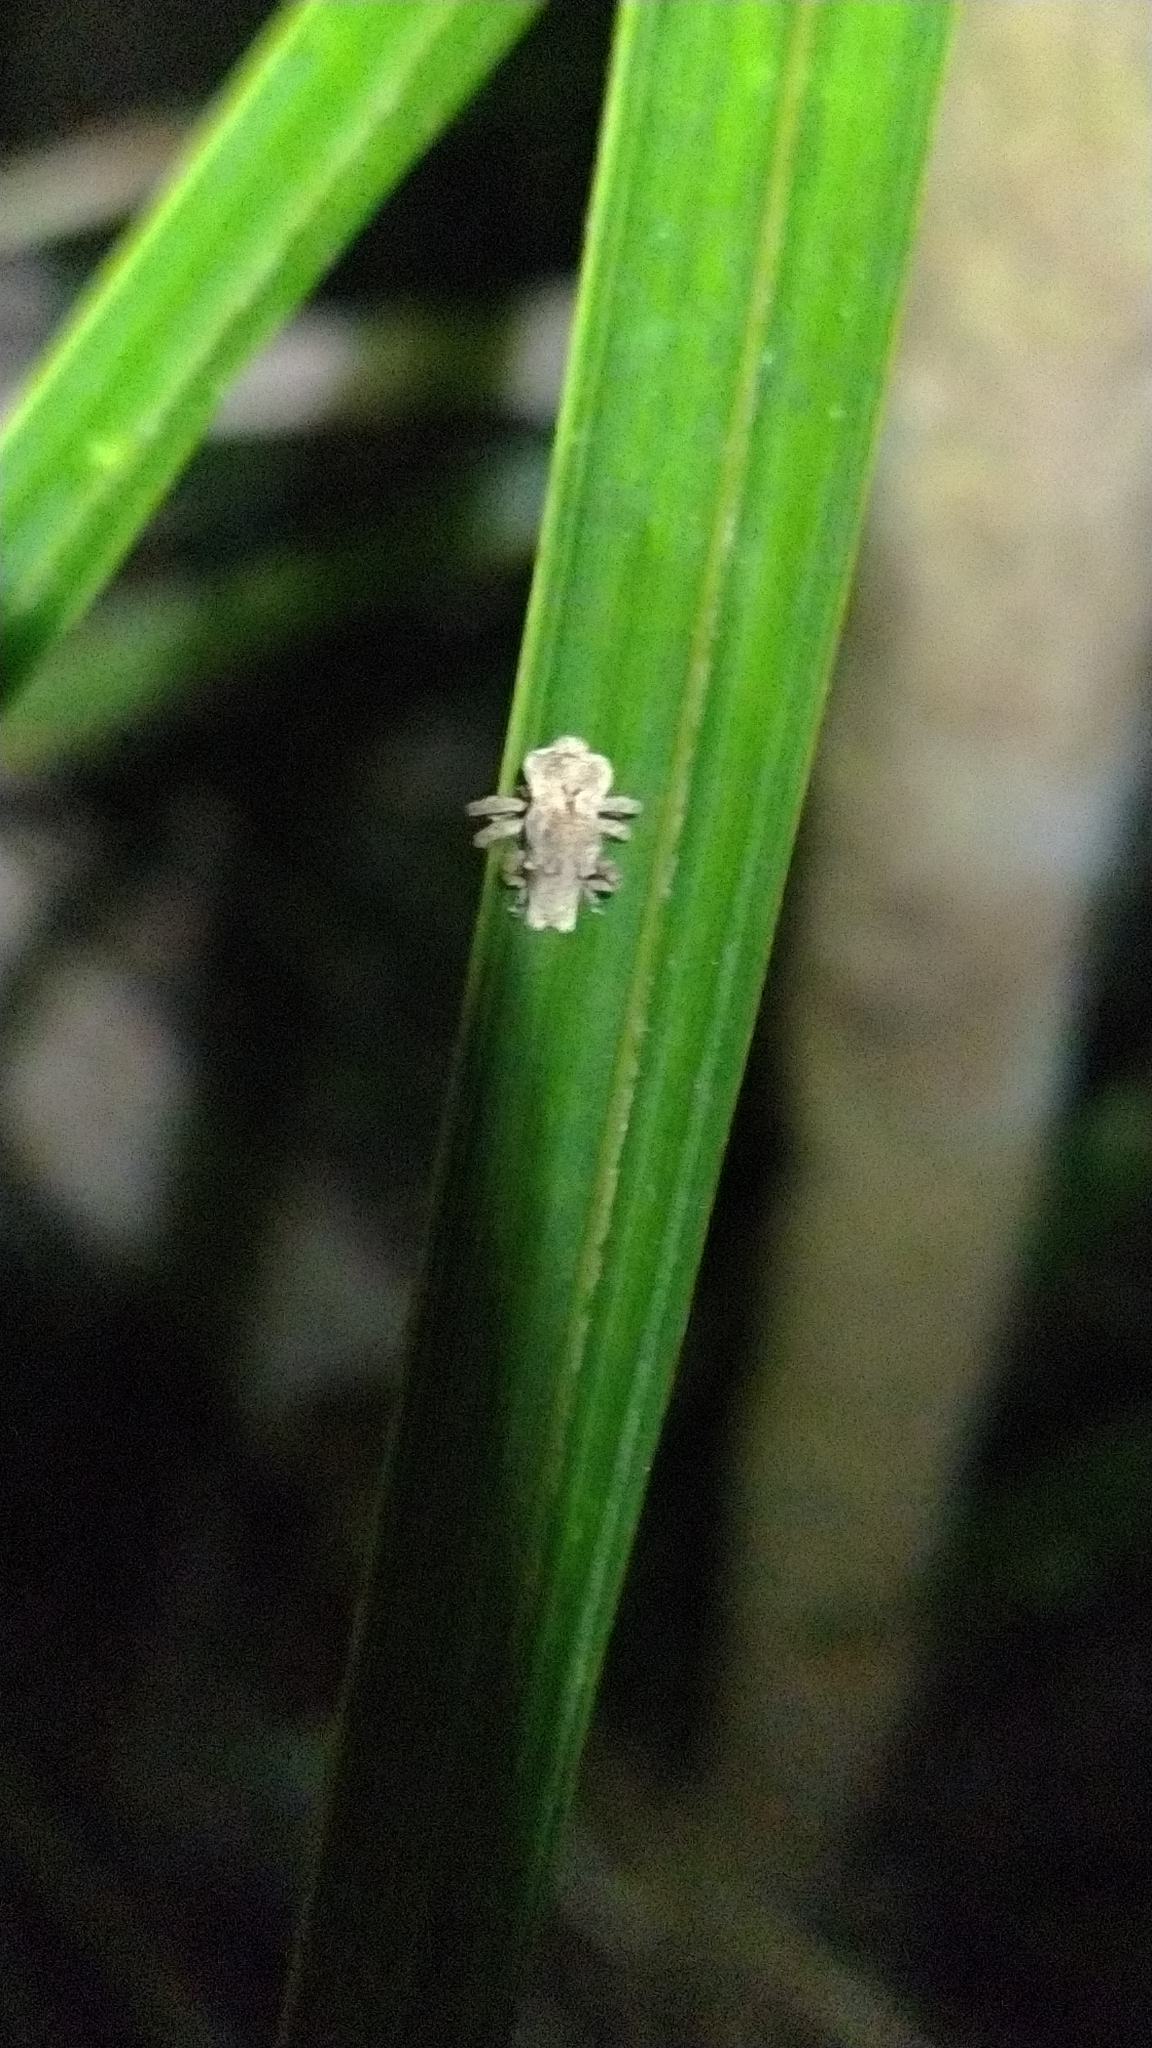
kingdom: Animalia
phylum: Arthropoda
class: Insecta
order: Coleoptera
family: Curculionidae
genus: Indecentia
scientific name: Indecentia nubila
